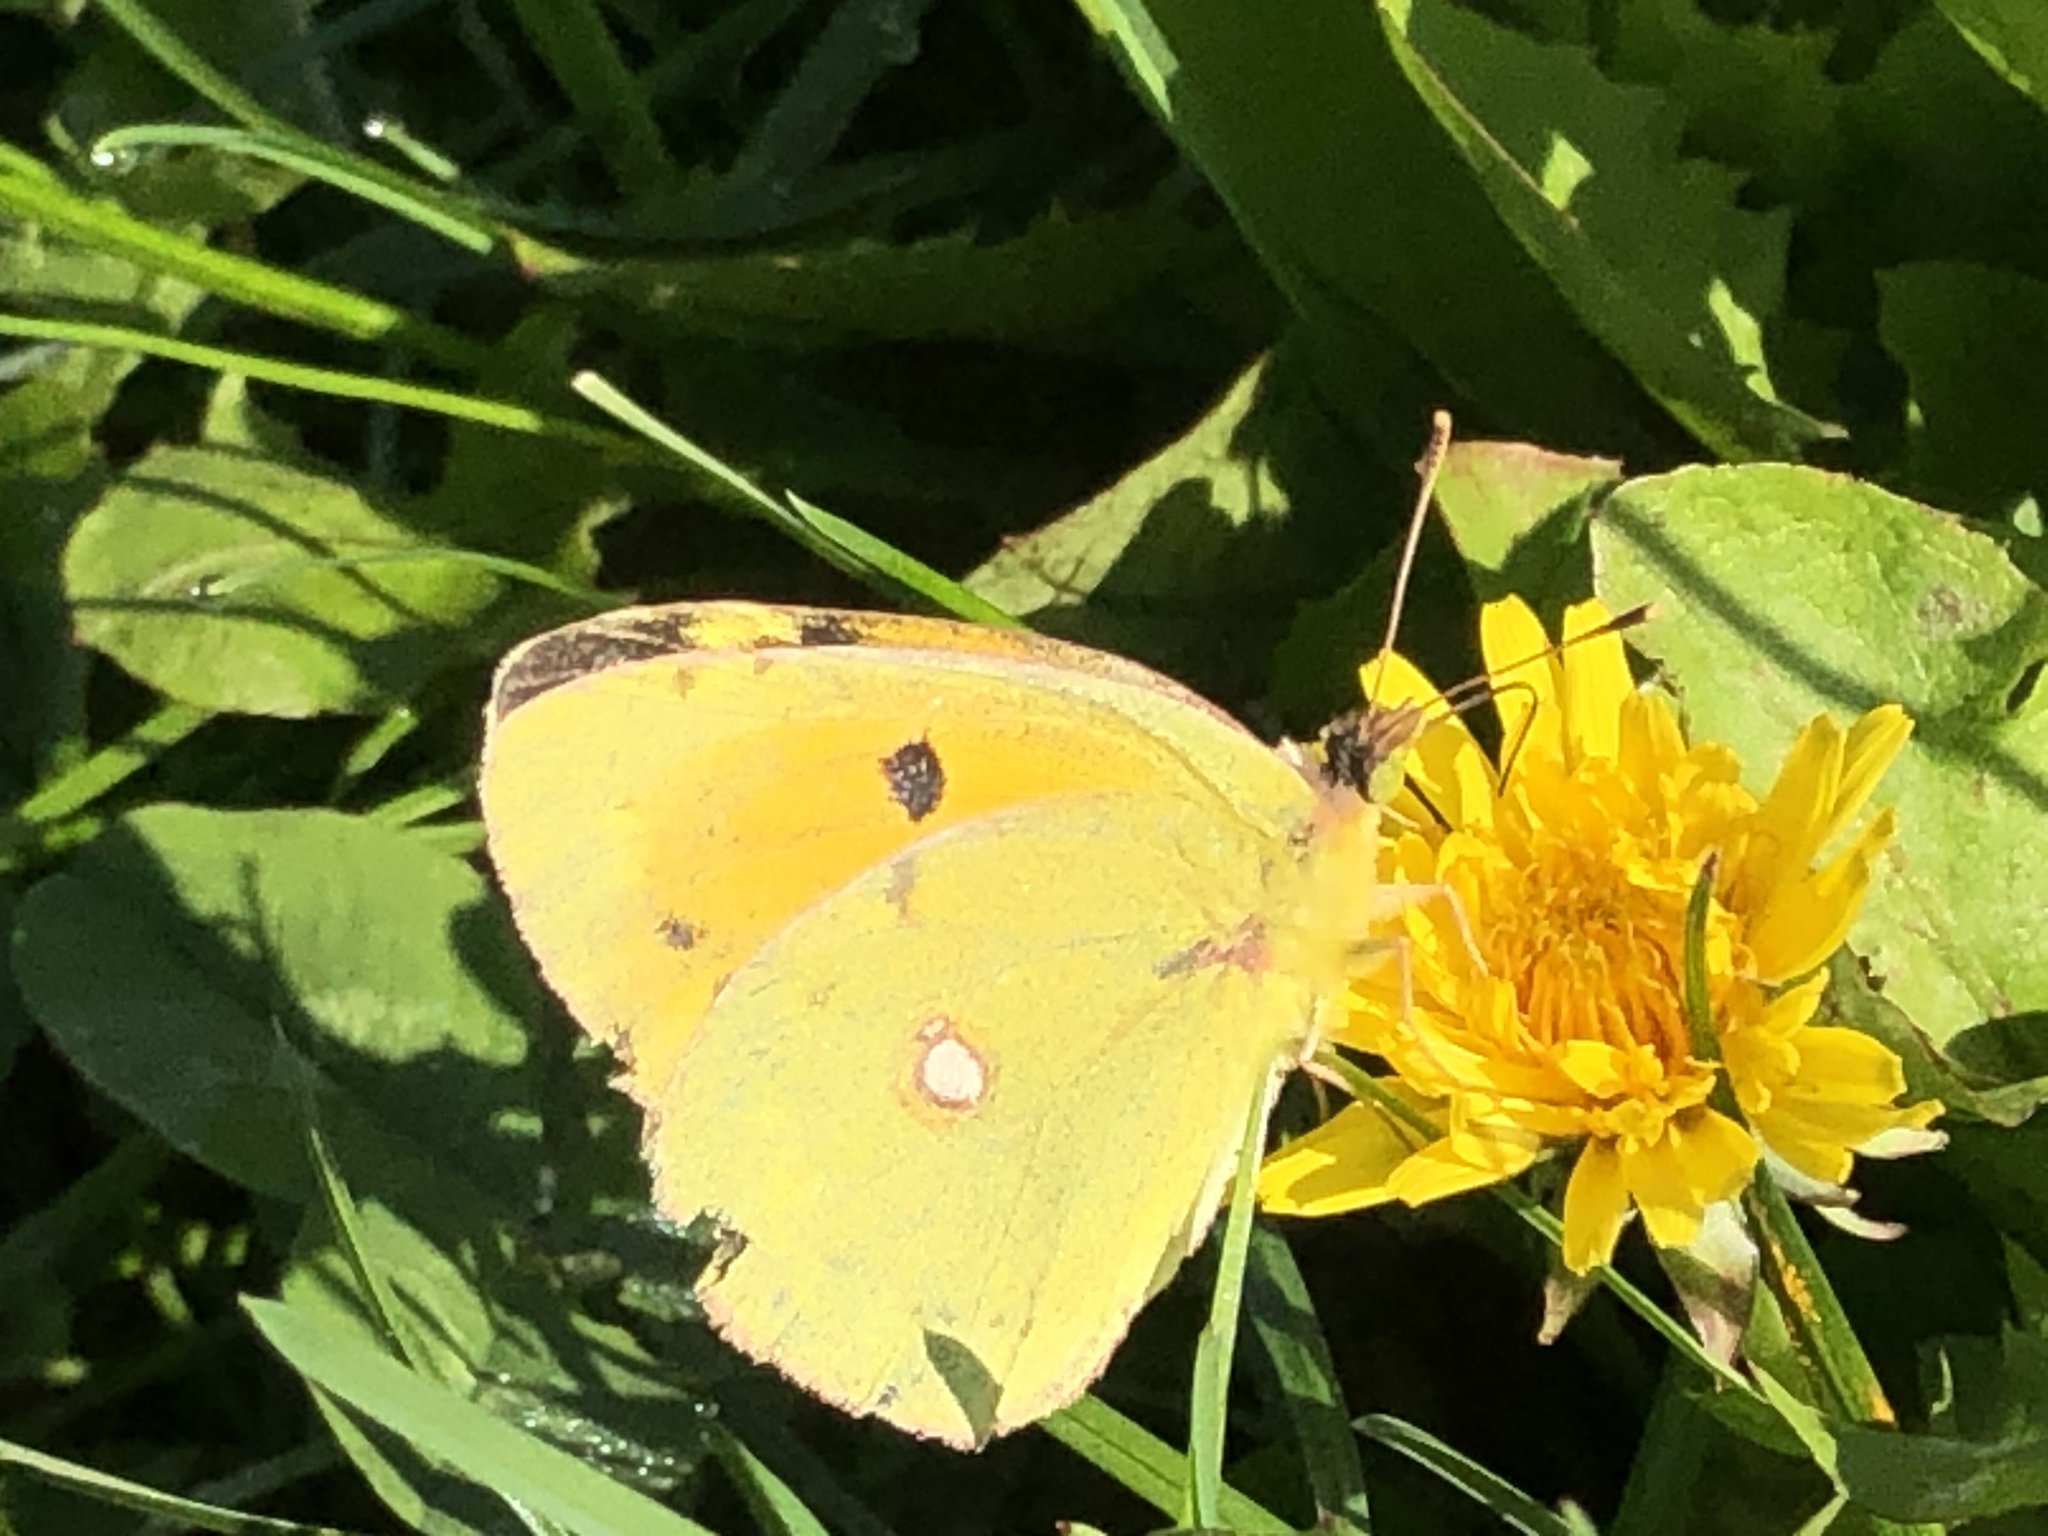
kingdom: Animalia
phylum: Arthropoda
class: Insecta
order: Lepidoptera
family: Pieridae
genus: Colias
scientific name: Colias croceus
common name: Clouded yellow
